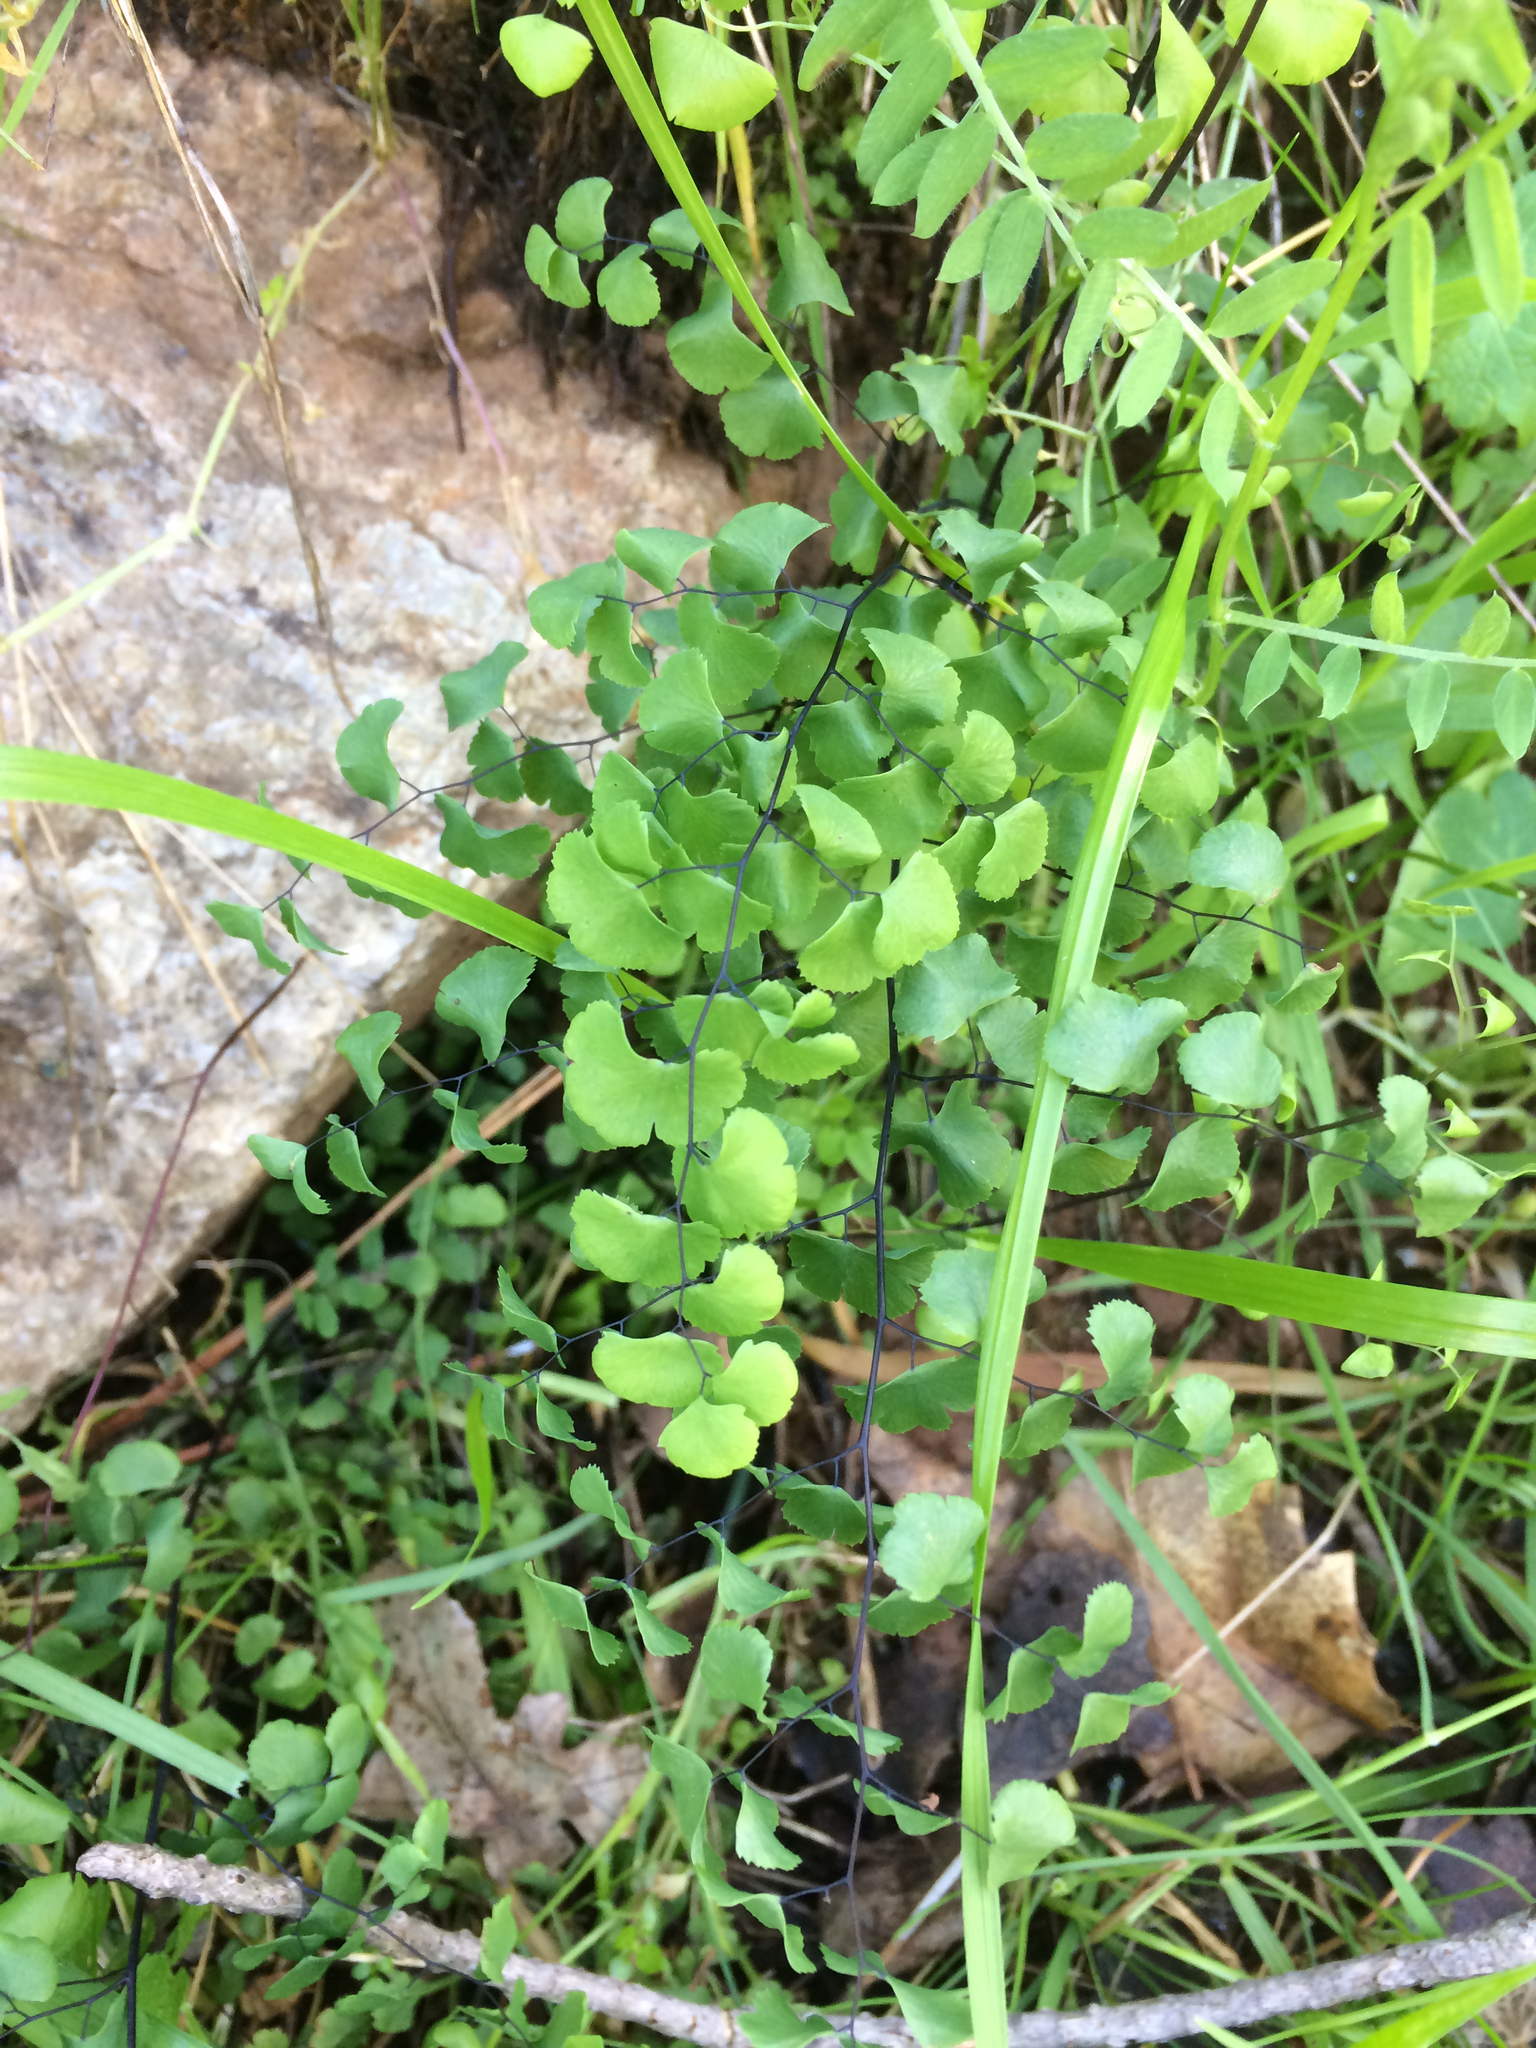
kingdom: Plantae
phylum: Tracheophyta
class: Polypodiopsida
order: Polypodiales
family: Pteridaceae
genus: Adiantum
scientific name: Adiantum jordanii
